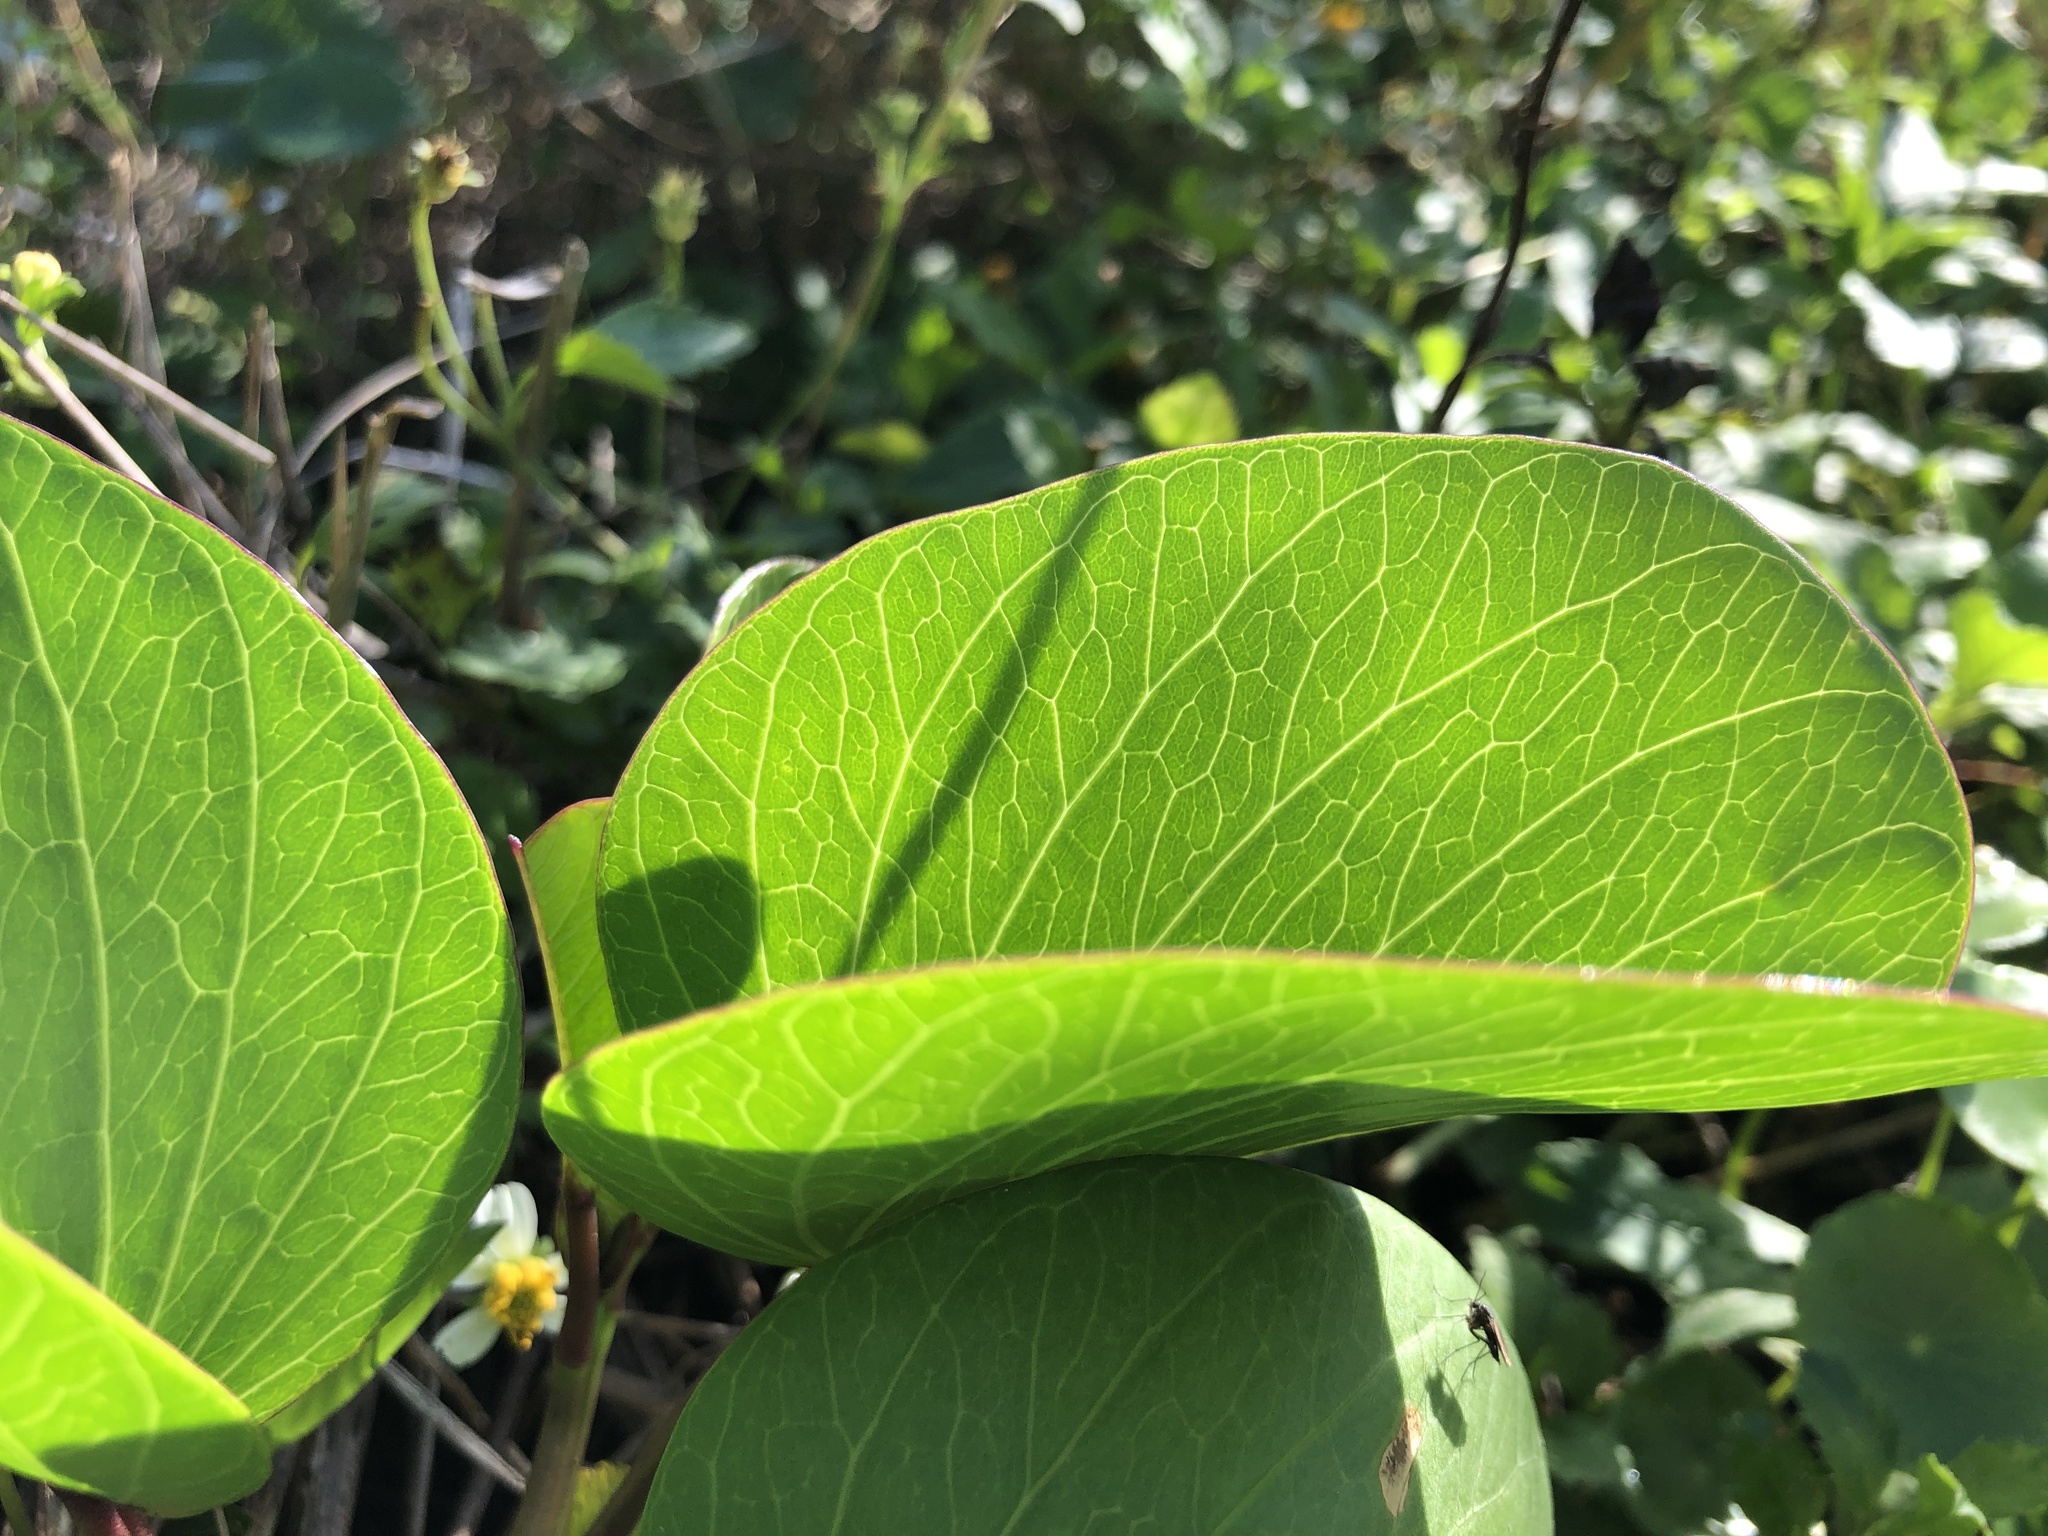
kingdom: Plantae
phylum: Tracheophyta
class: Magnoliopsida
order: Solanales
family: Convolvulaceae
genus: Ipomoea
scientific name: Ipomoea pes-caprae
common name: Beach morning glory
